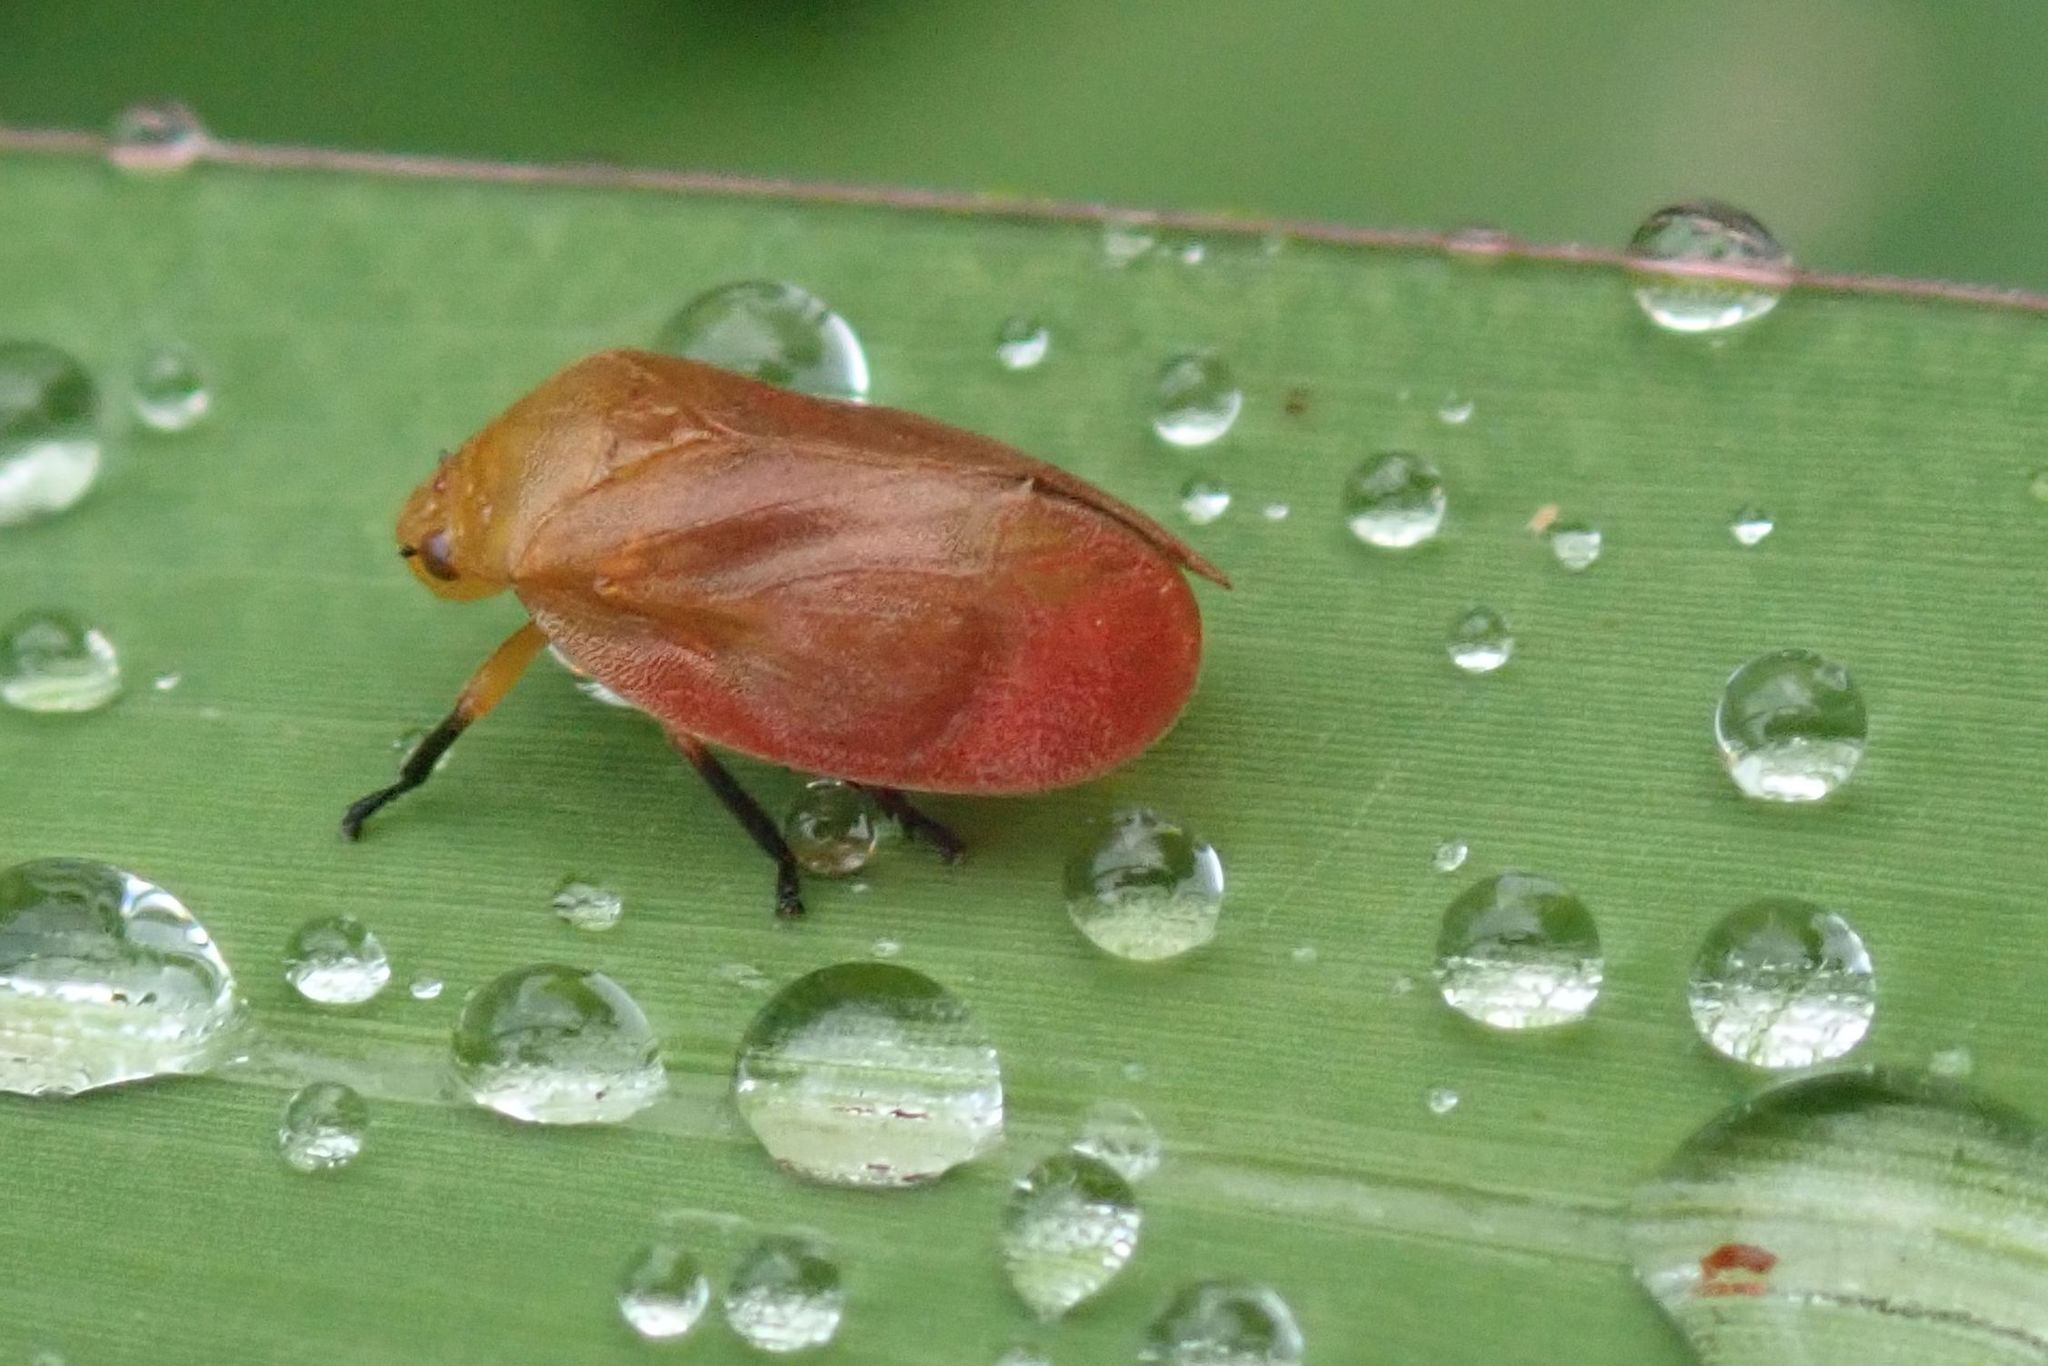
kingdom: Animalia
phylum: Arthropoda
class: Insecta
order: Hemiptera
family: Cercopidae
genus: Bandusia
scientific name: Bandusia rubicunda
